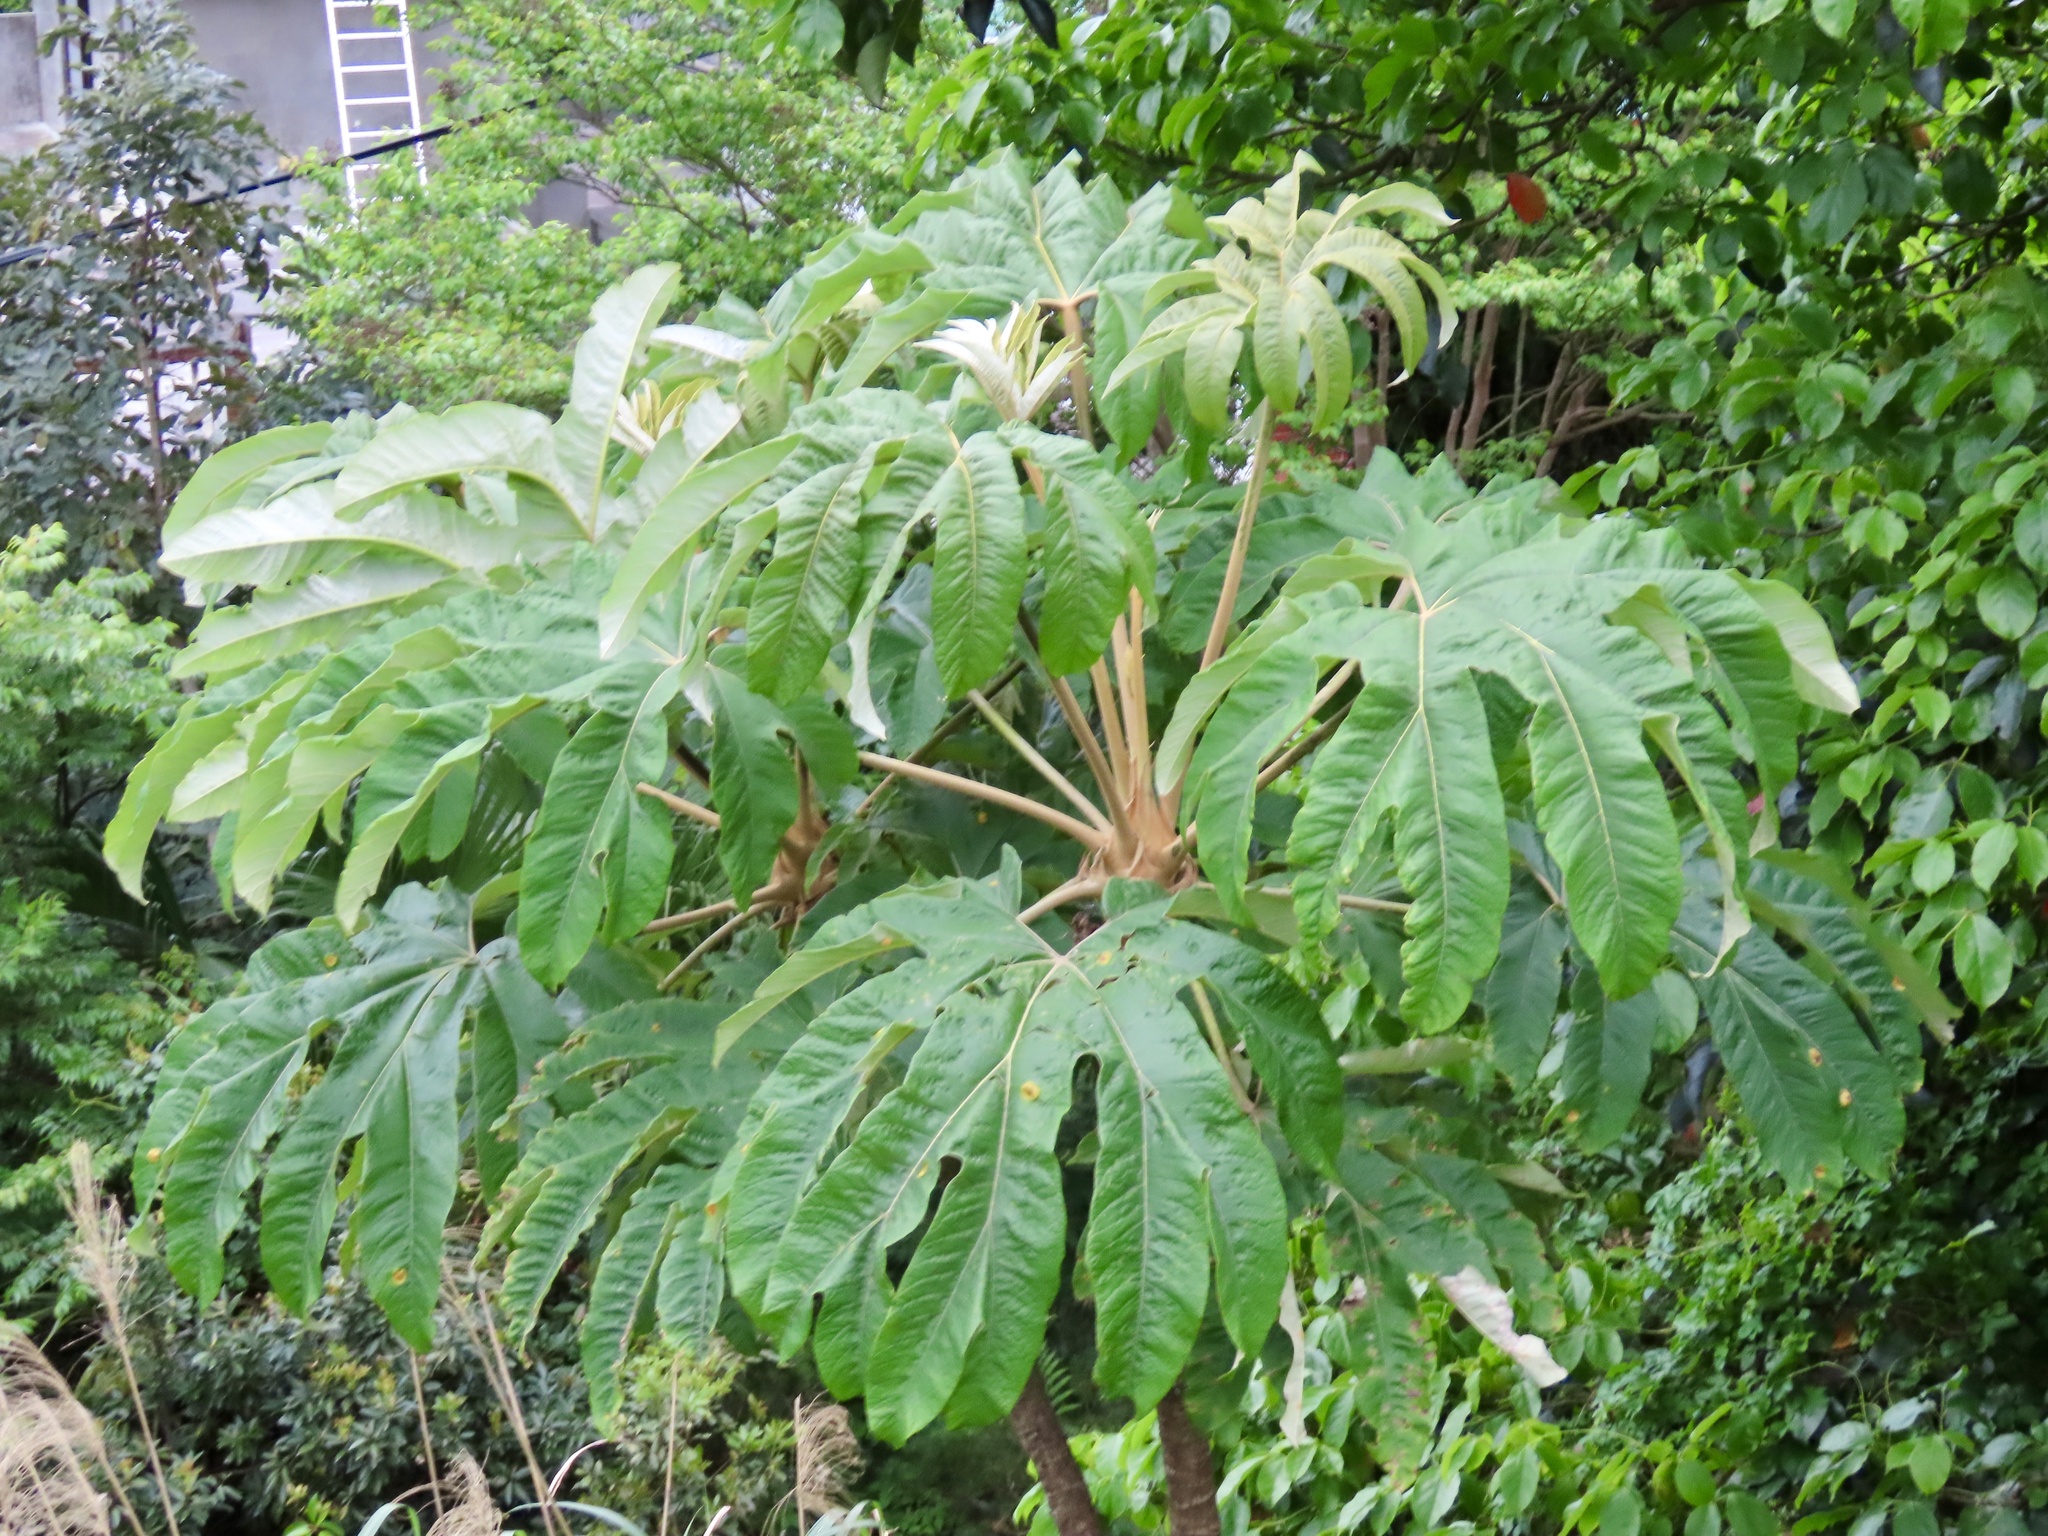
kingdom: Plantae
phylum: Tracheophyta
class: Magnoliopsida
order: Apiales
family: Araliaceae
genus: Tetrapanax
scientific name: Tetrapanax papyrifer
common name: Rice-paper plant
